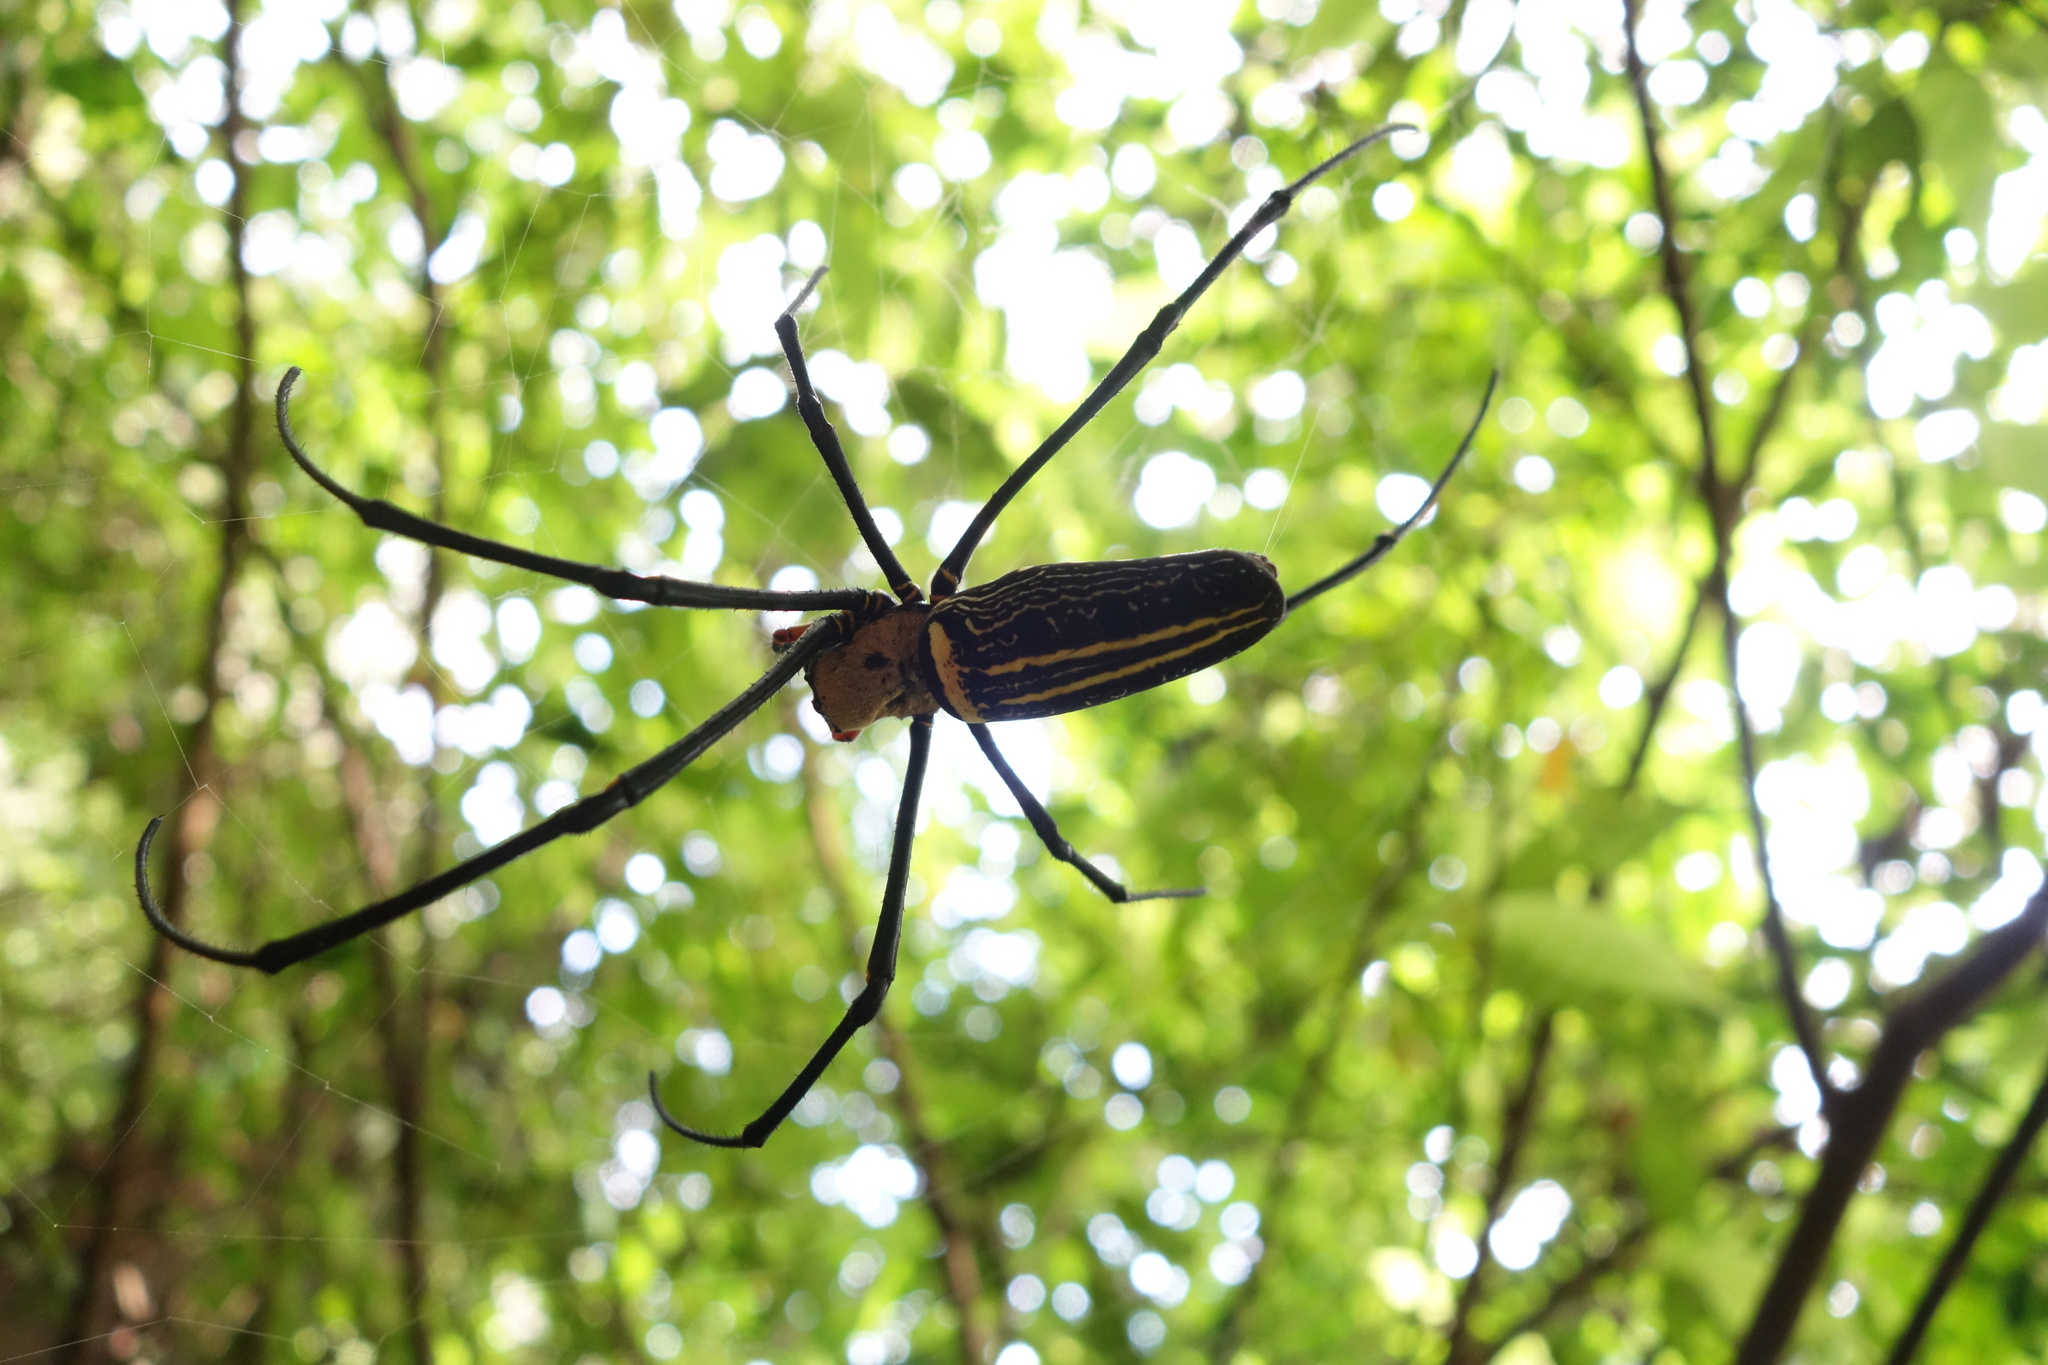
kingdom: Animalia
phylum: Arthropoda
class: Arachnida
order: Araneae
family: Araneidae
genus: Nephila
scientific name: Nephila pilipes
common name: Giant golden orb weaver
